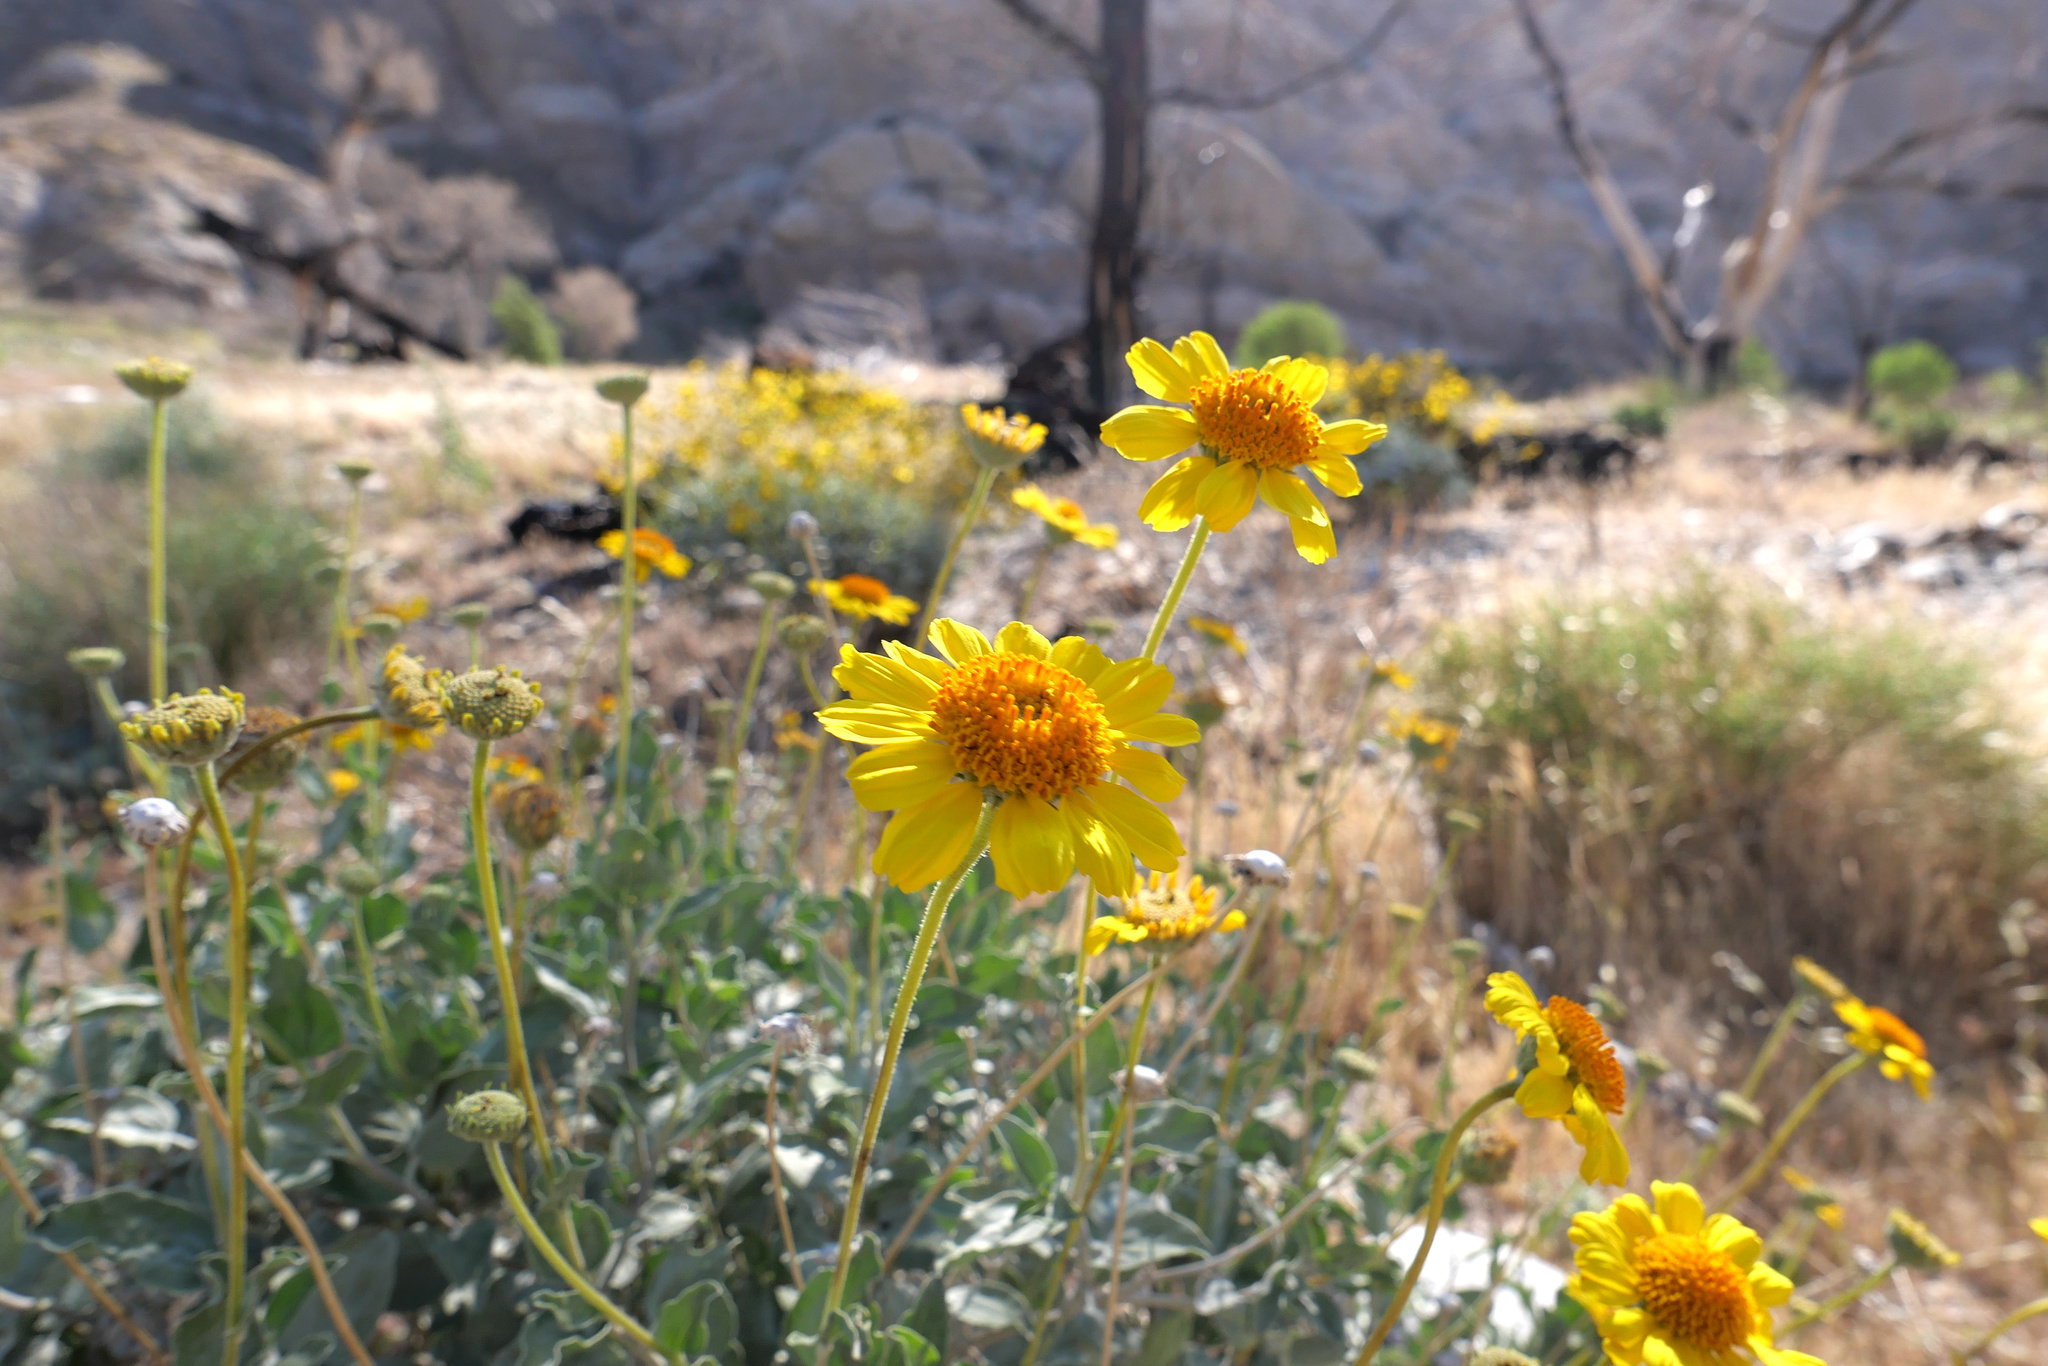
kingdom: Plantae
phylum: Tracheophyta
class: Magnoliopsida
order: Asterales
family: Asteraceae
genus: Encelia
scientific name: Encelia actoni
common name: Acton encelia
